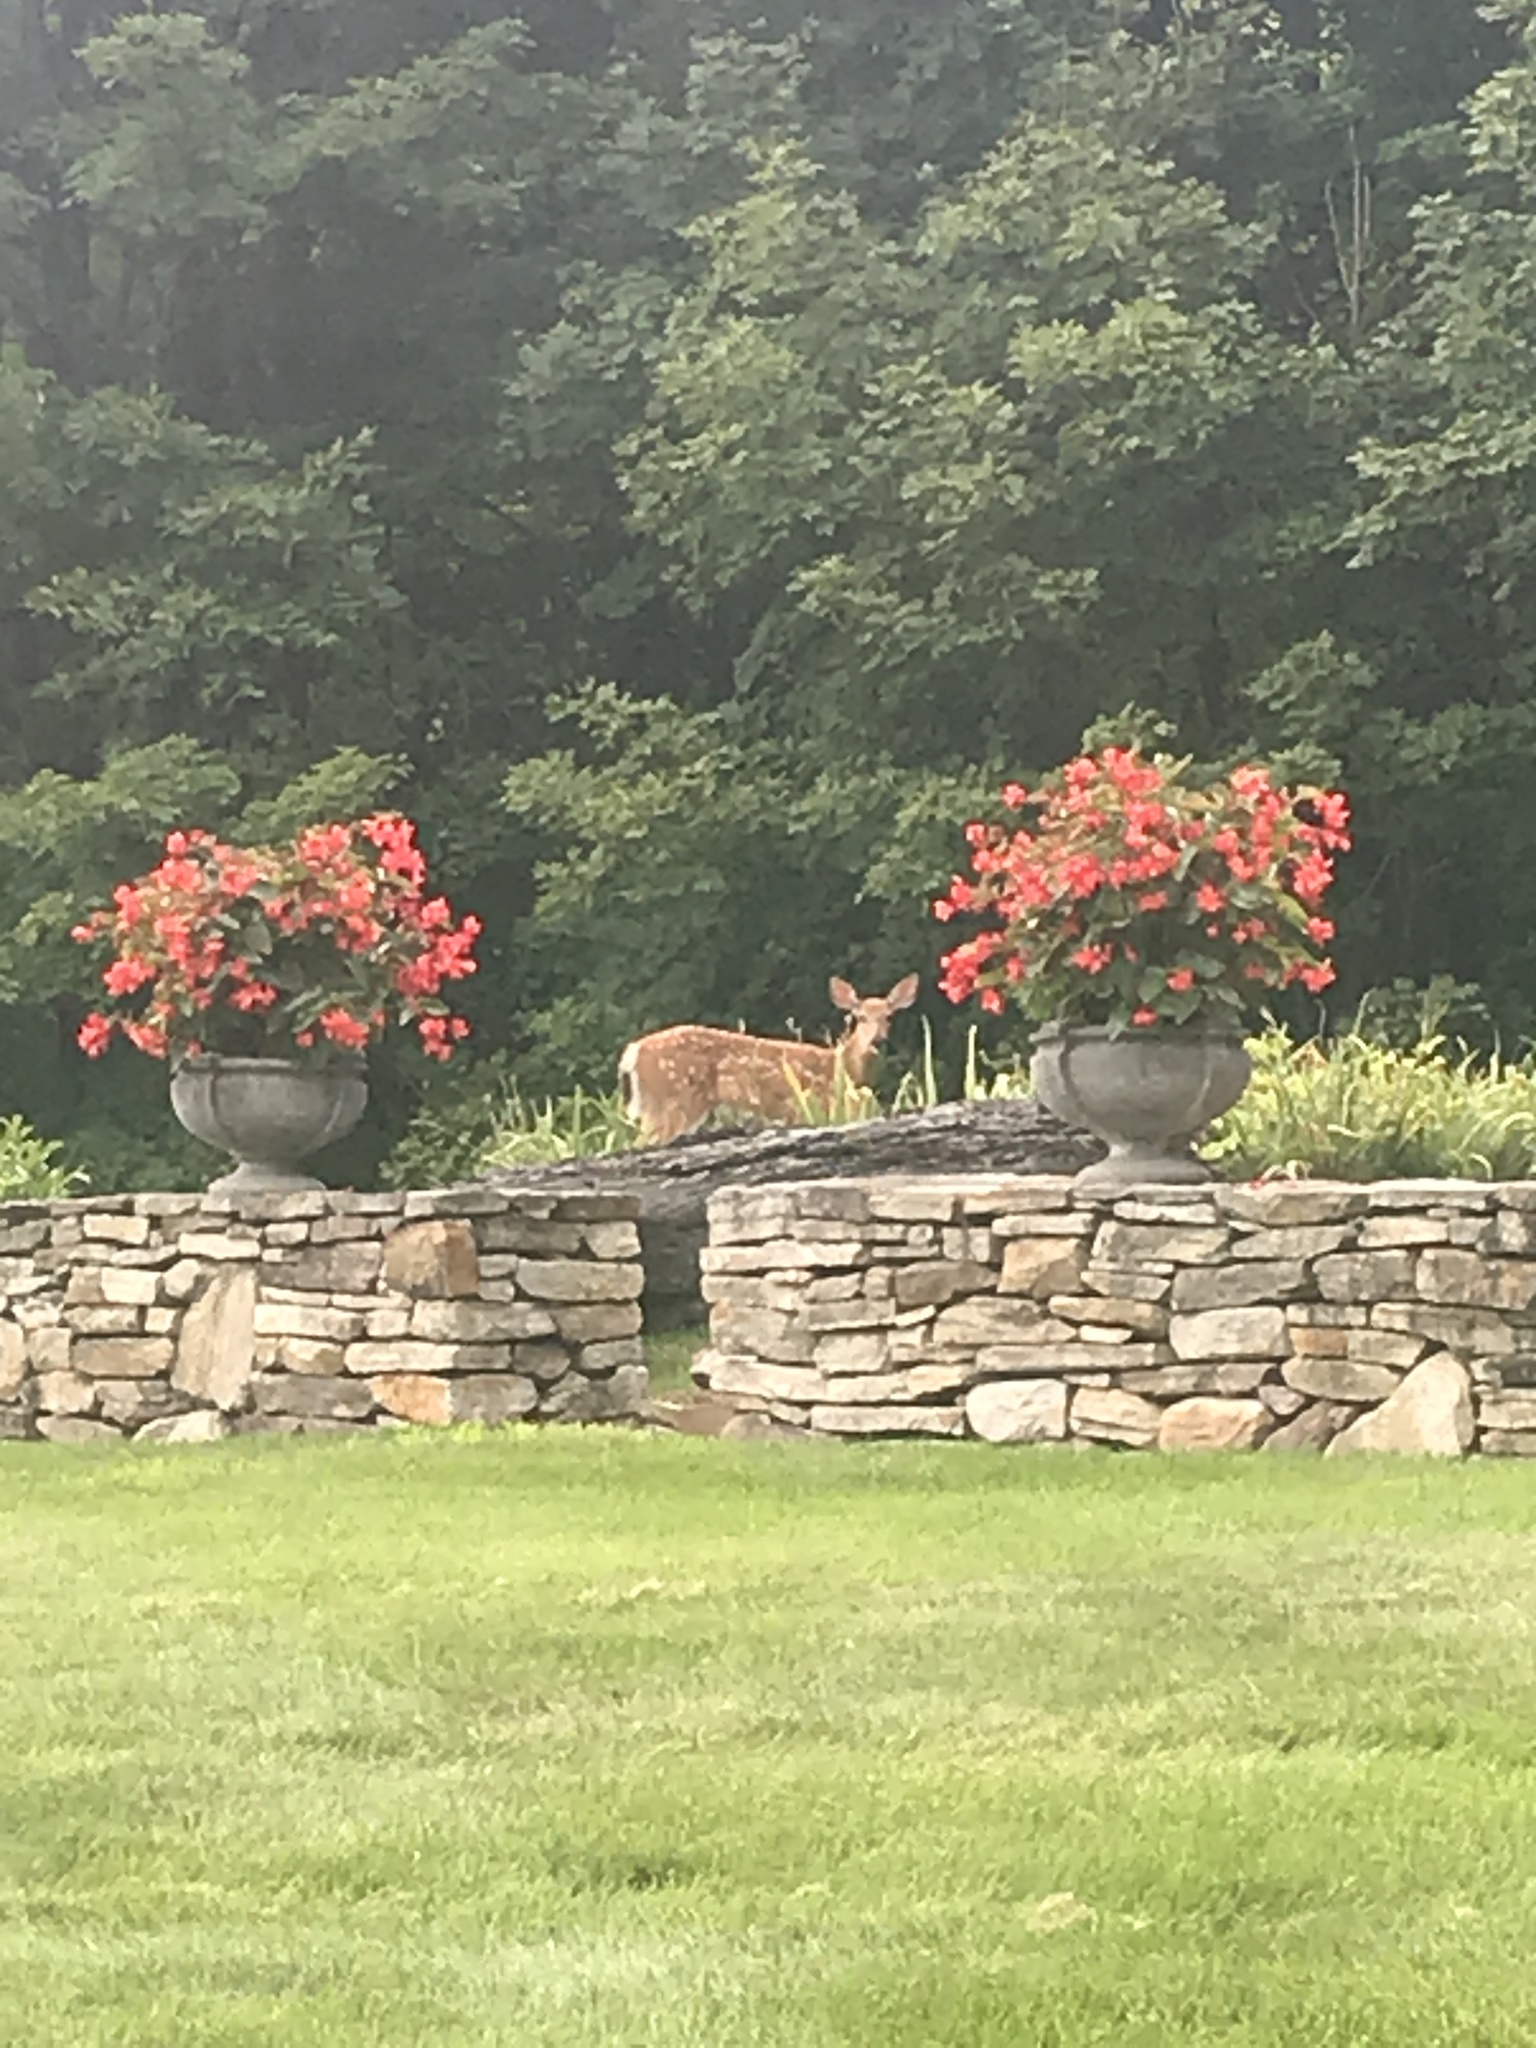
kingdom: Animalia
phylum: Chordata
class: Mammalia
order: Artiodactyla
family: Cervidae
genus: Odocoileus
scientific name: Odocoileus virginianus
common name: White-tailed deer
